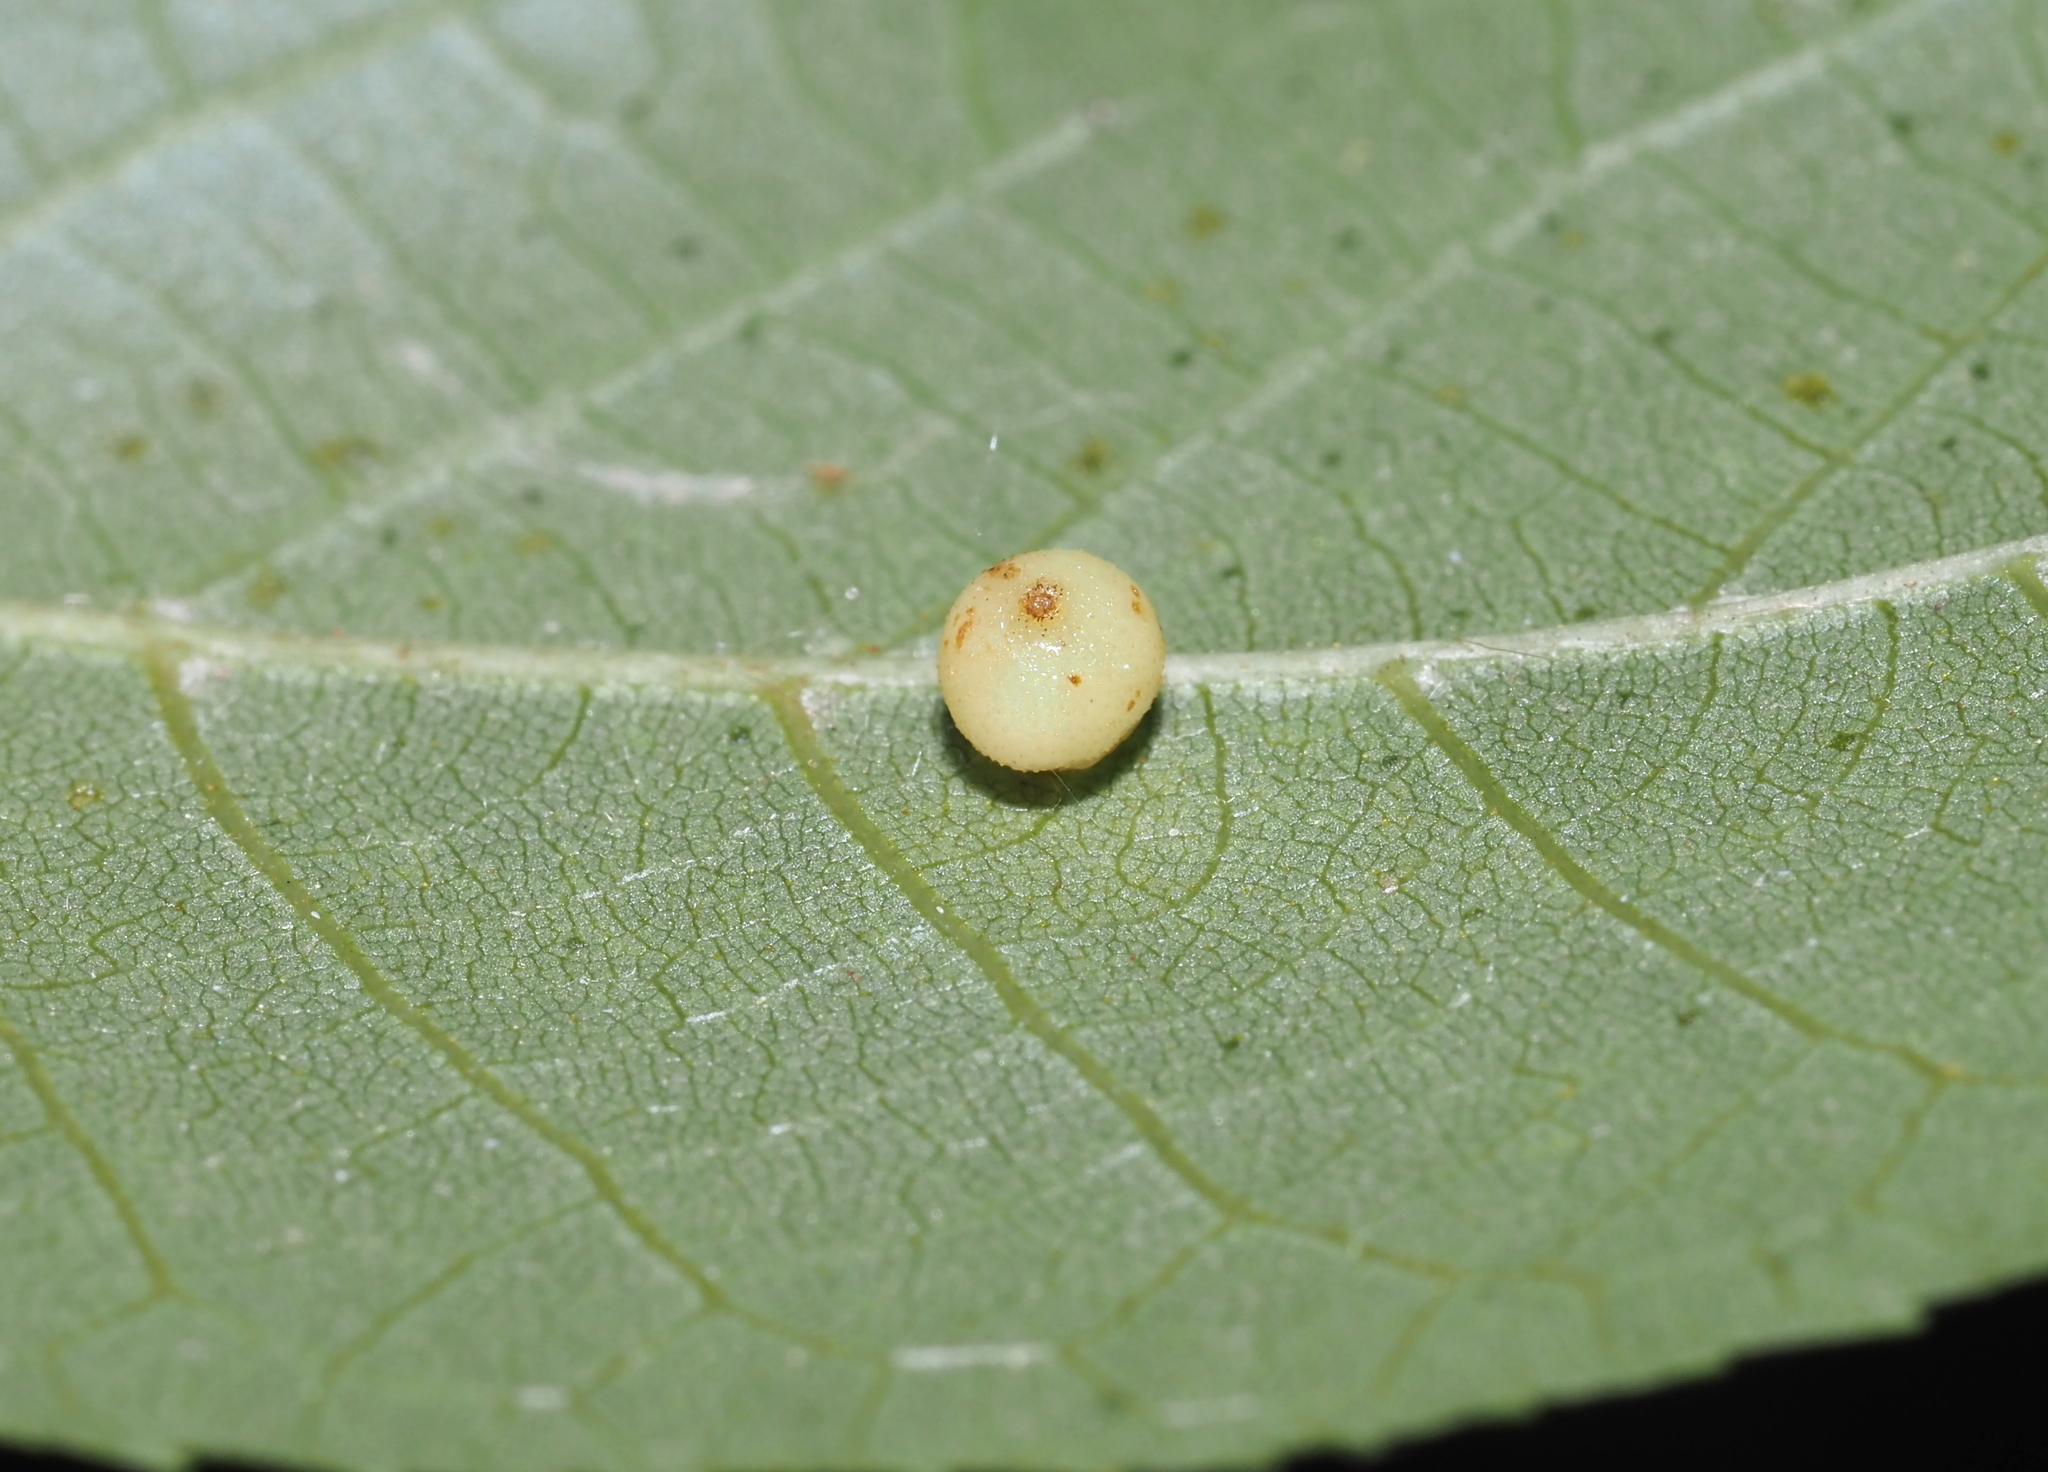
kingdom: Animalia
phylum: Arthropoda
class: Insecta
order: Diptera
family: Cecidomyiidae
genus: Caryomyia
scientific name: Caryomyia caryae
